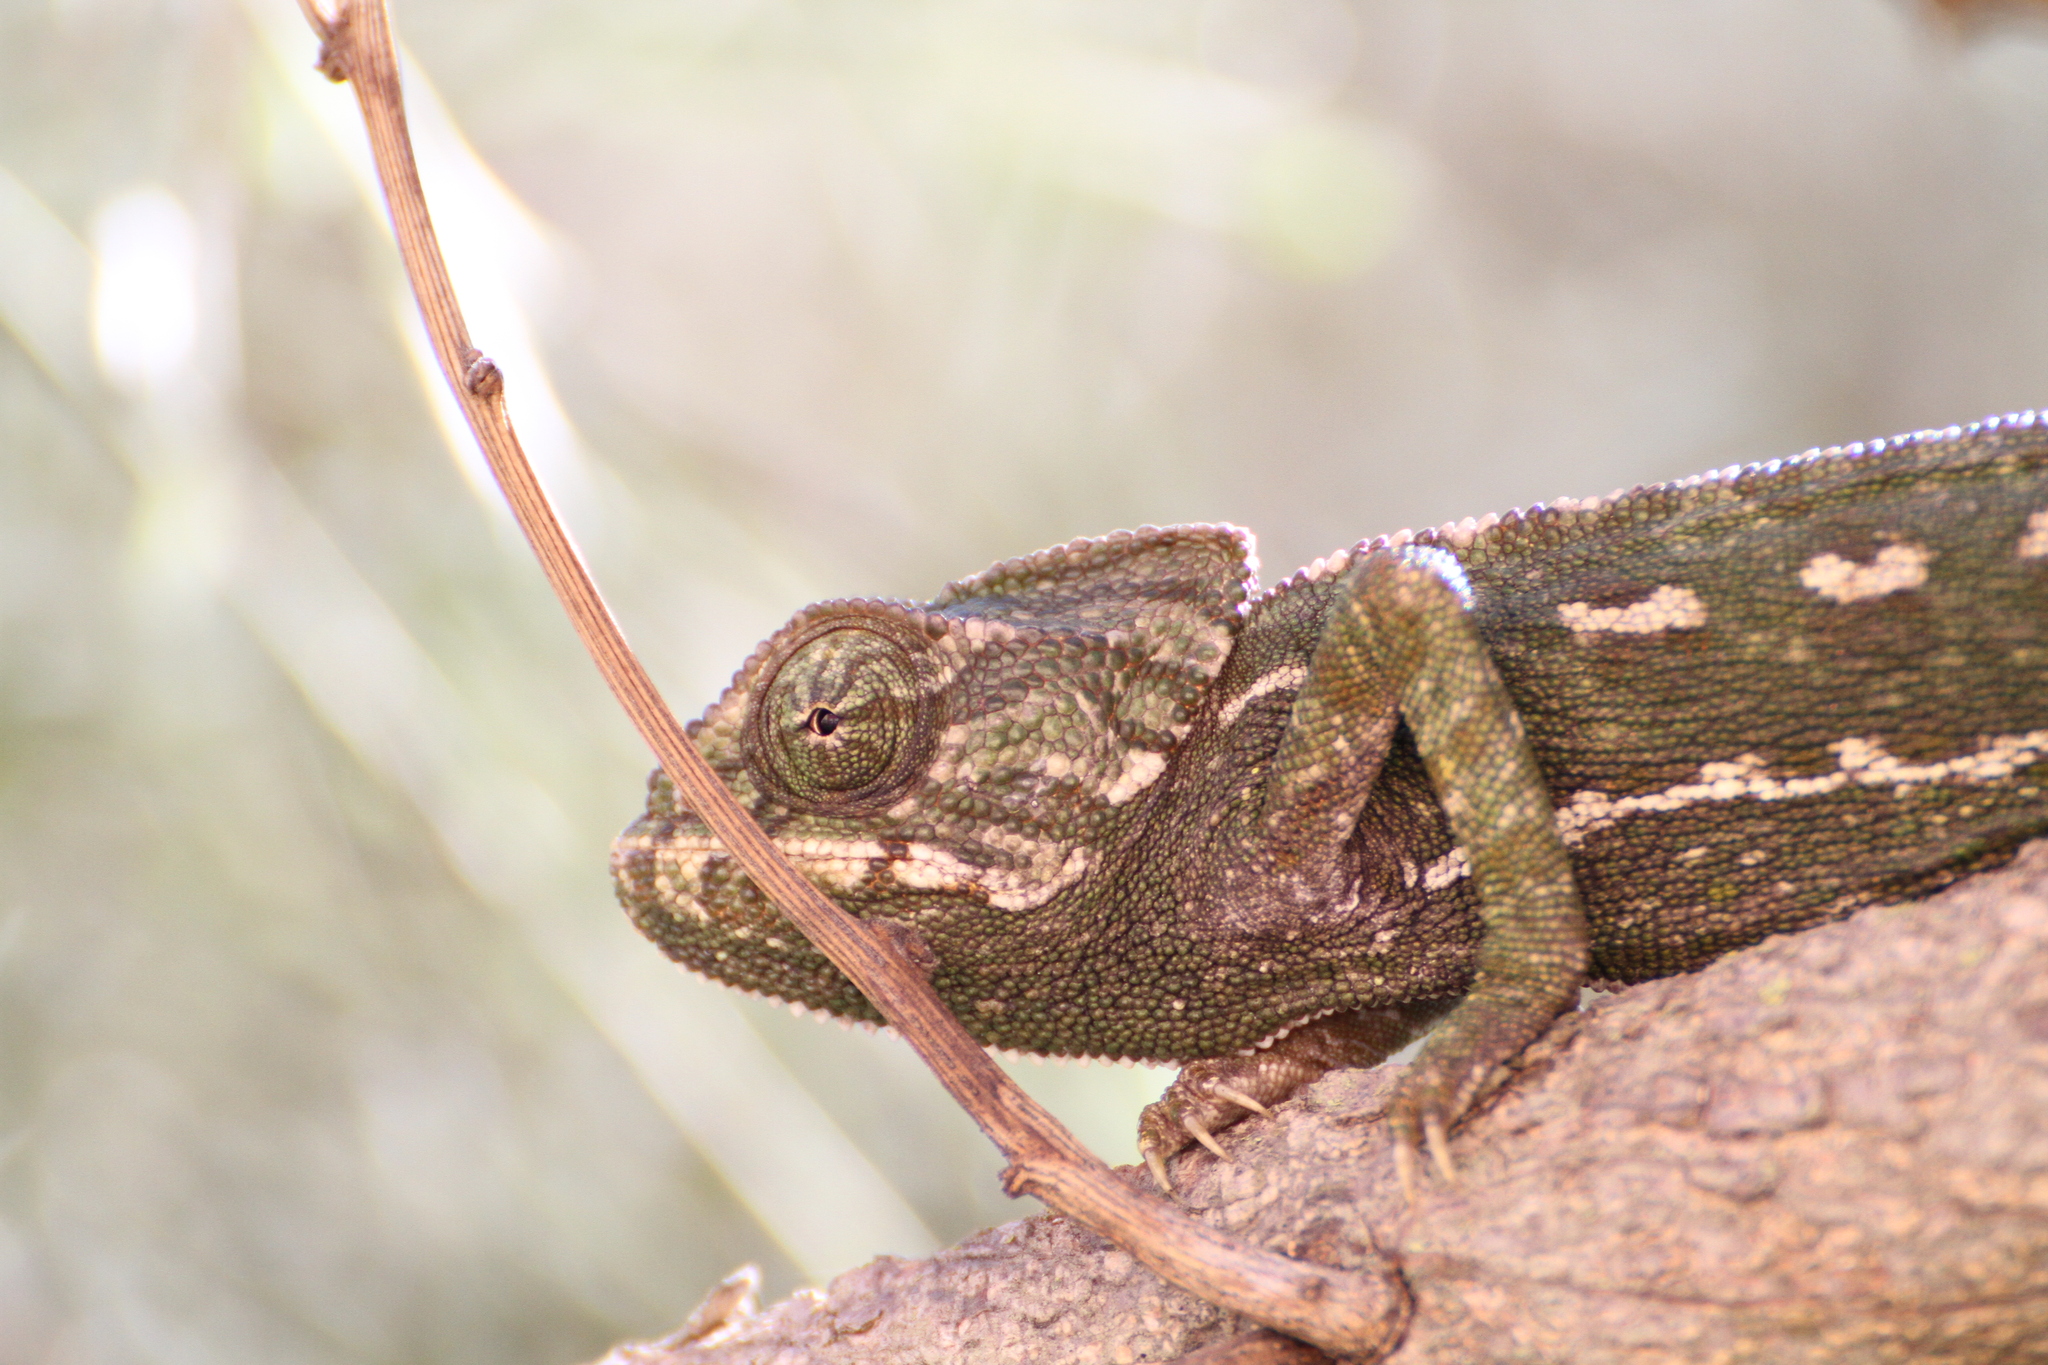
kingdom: Animalia
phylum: Chordata
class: Squamata
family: Chamaeleonidae
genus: Chamaeleo
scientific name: Chamaeleo chamaeleon
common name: Mediterranean chameleon
